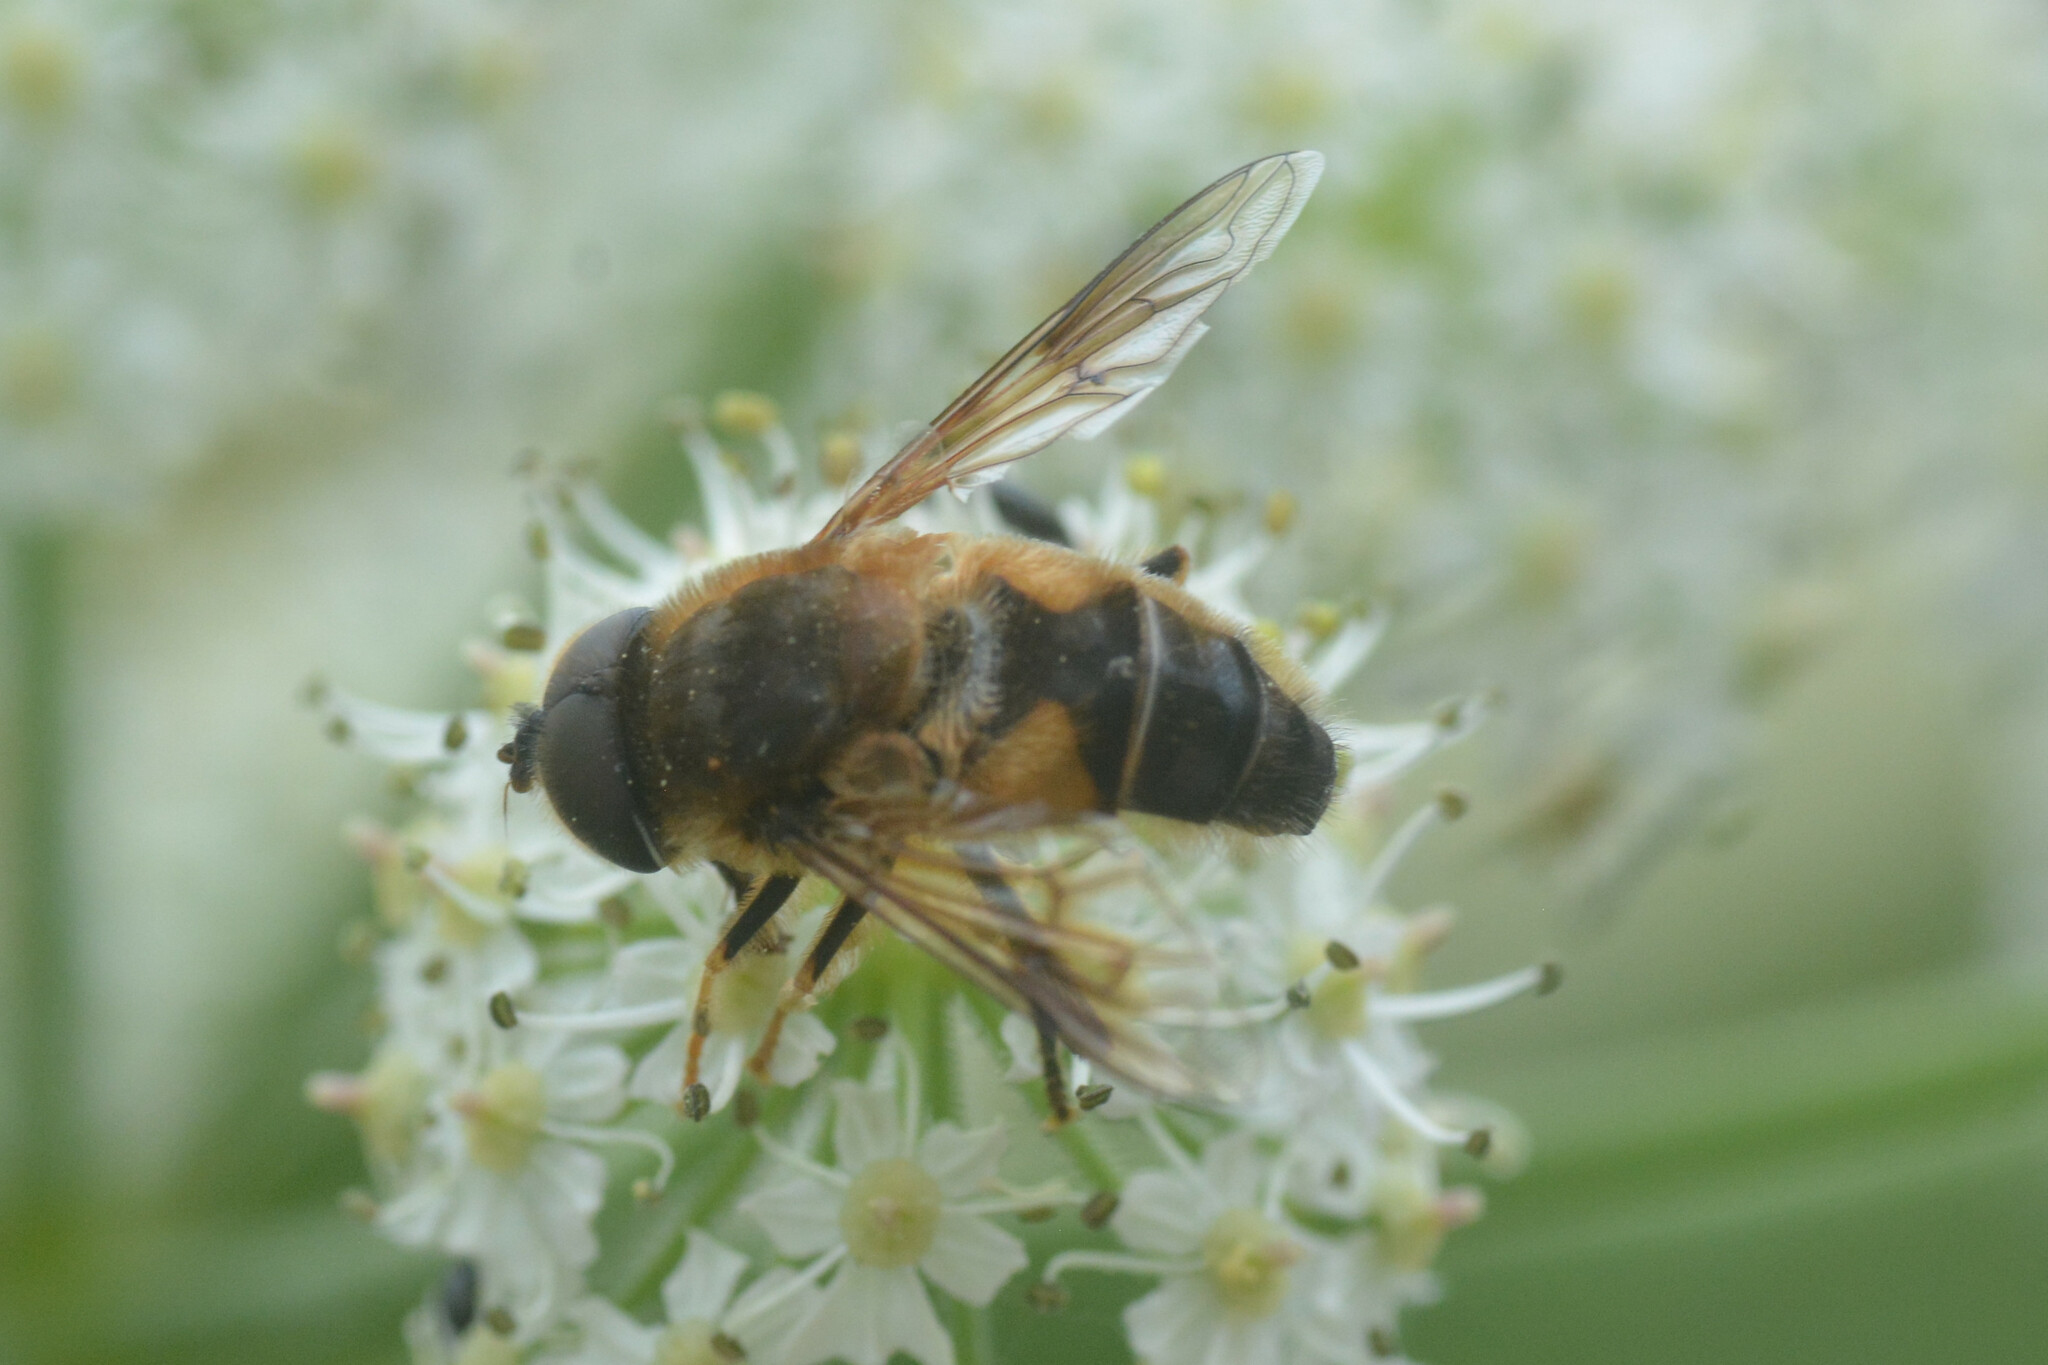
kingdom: Animalia
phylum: Arthropoda
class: Insecta
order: Diptera
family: Syrphidae
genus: Eristalis
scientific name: Eristalis pertinax
